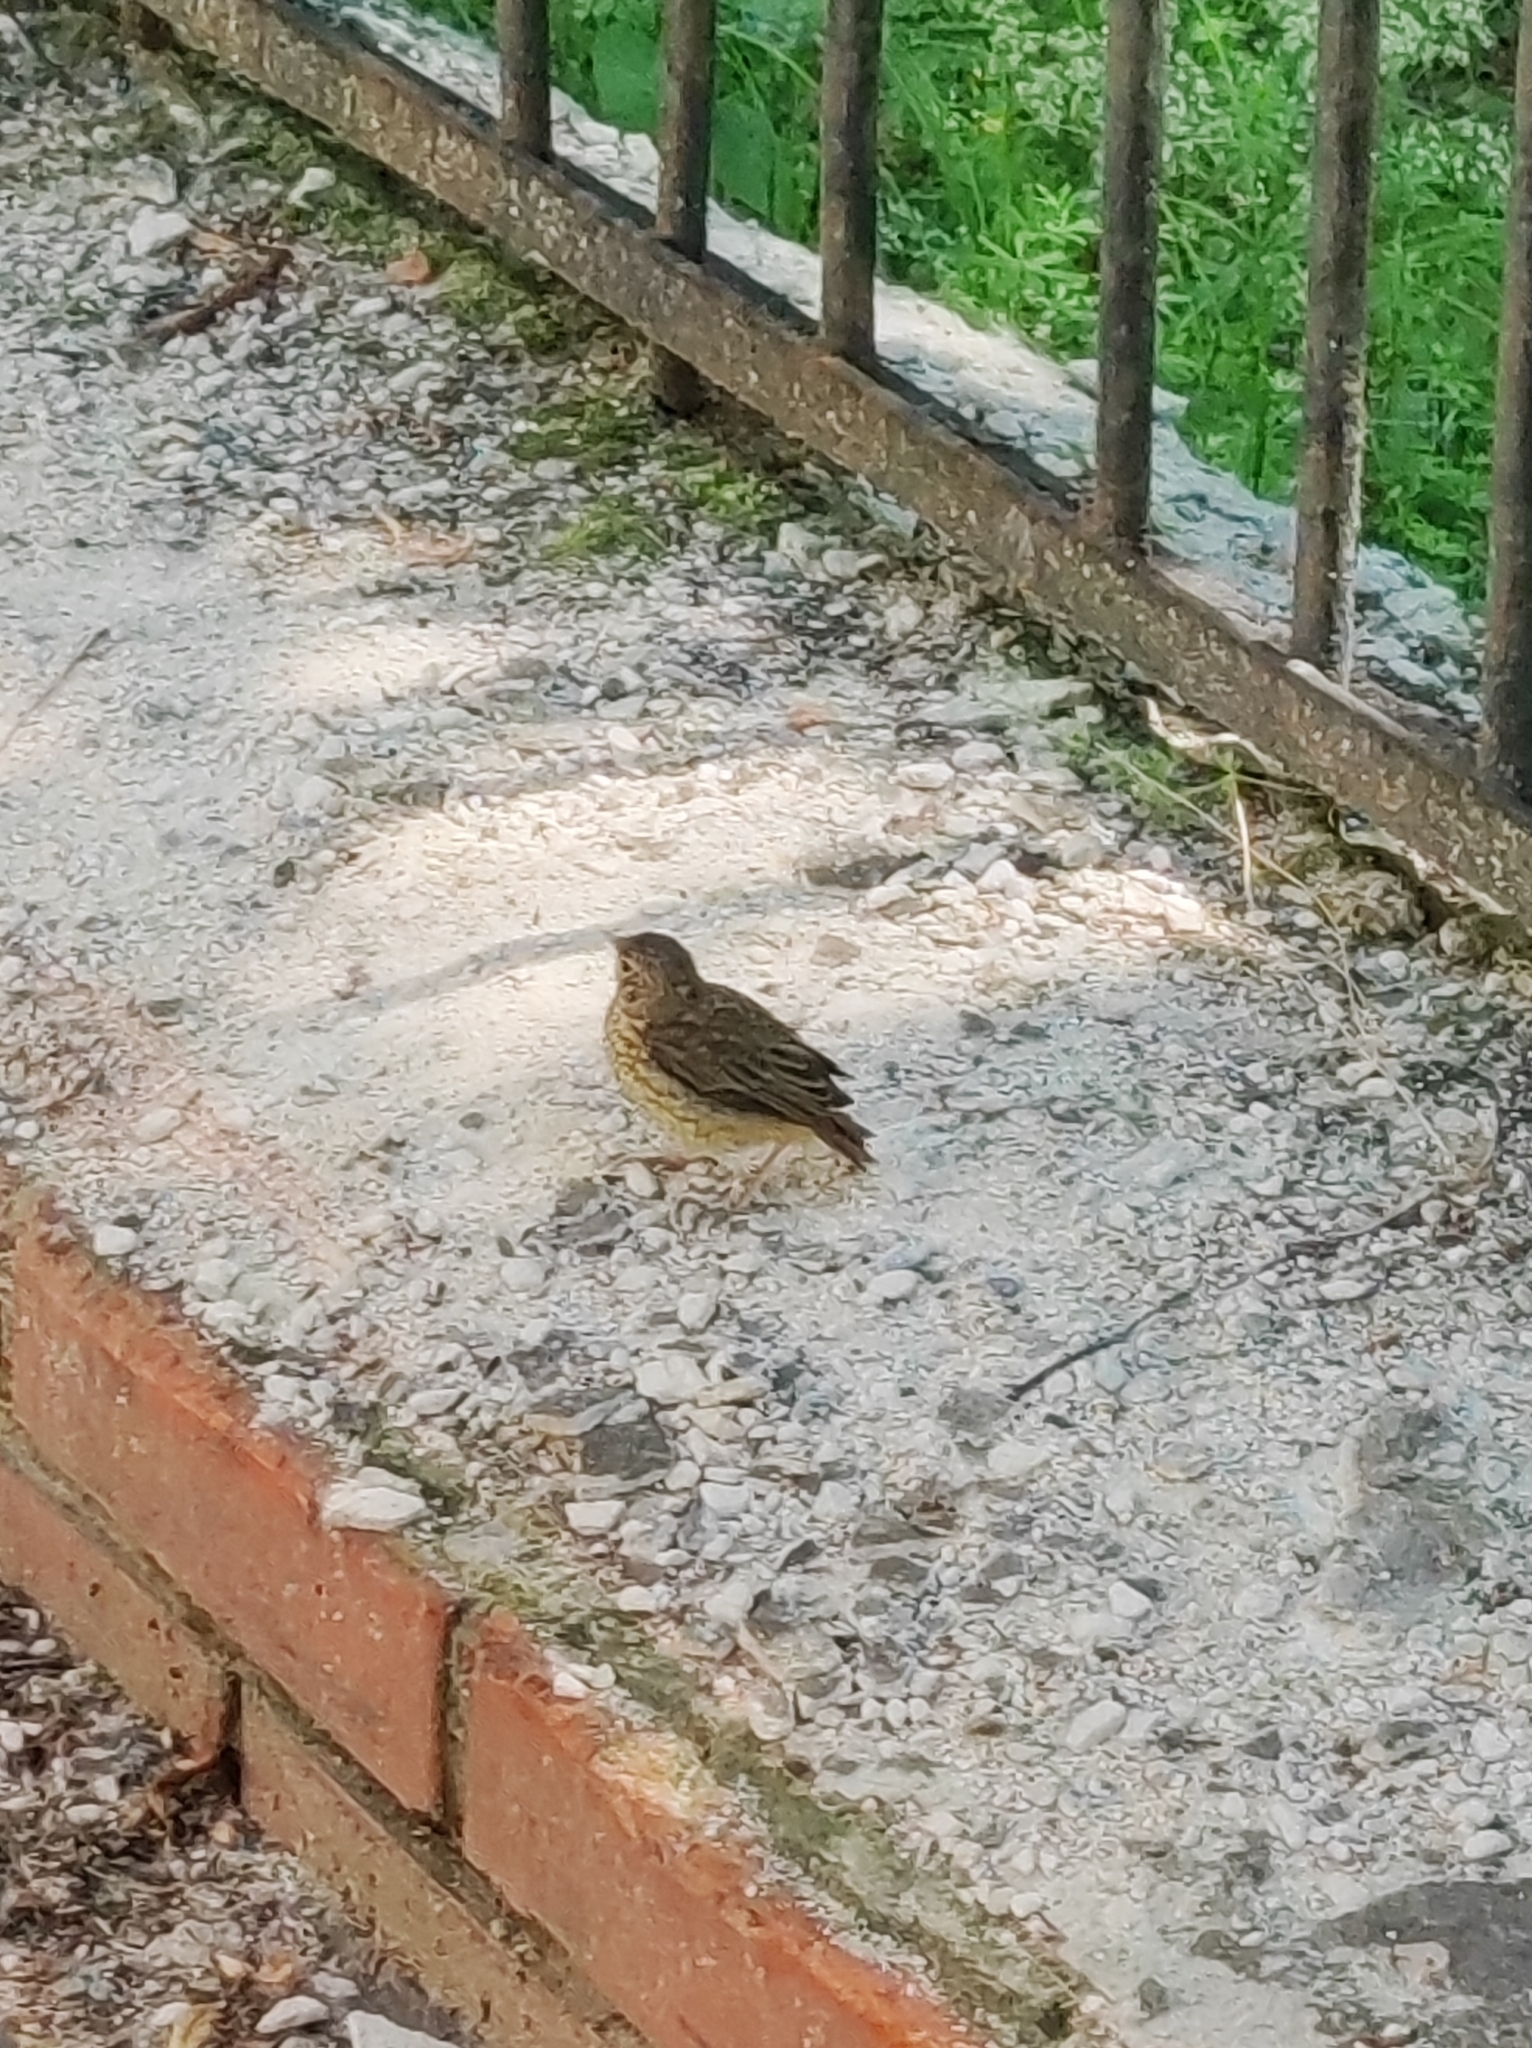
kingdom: Animalia
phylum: Chordata
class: Aves
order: Passeriformes
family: Muscicapidae
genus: Phoenicurus
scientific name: Phoenicurus phoenicurus
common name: Common redstart
